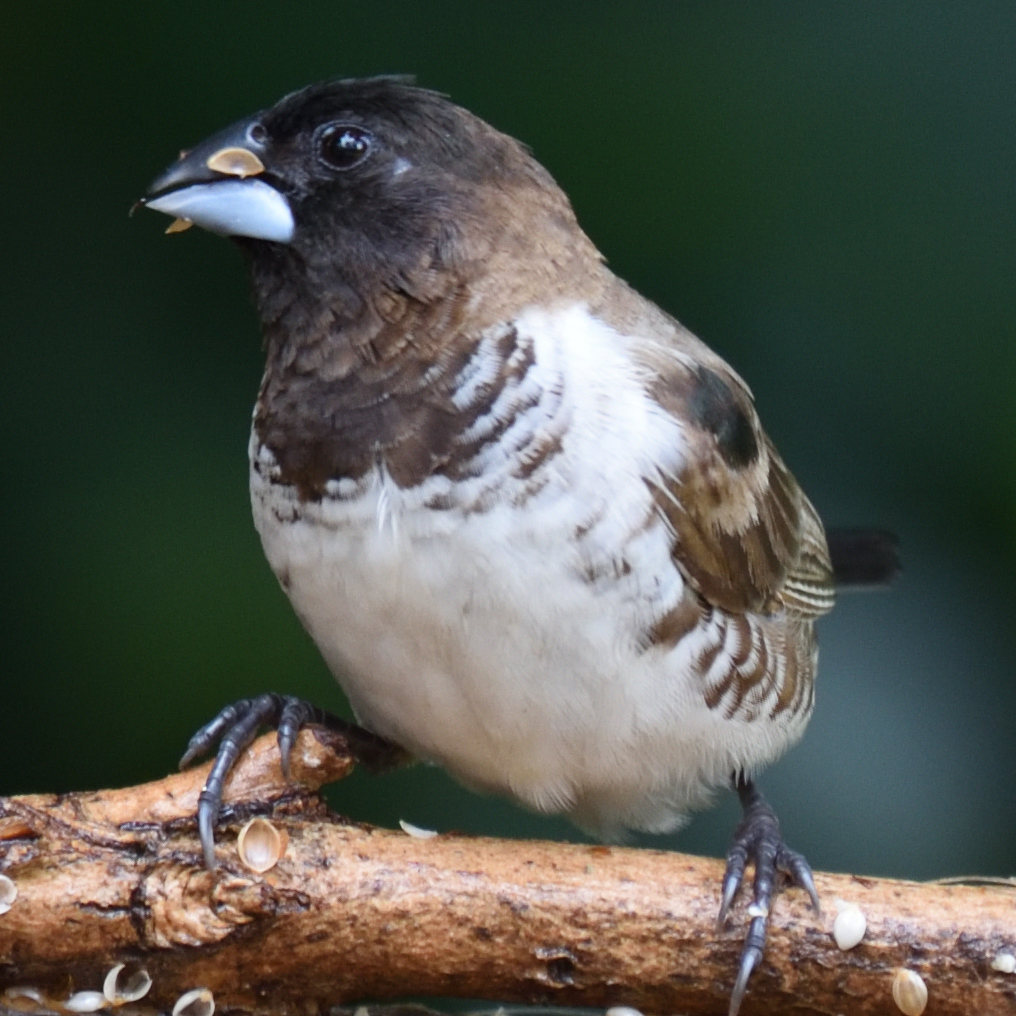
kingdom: Animalia
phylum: Chordata
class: Aves
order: Passeriformes
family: Estrildidae
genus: Lonchura
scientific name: Lonchura cucullata
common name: Bronze mannikin
